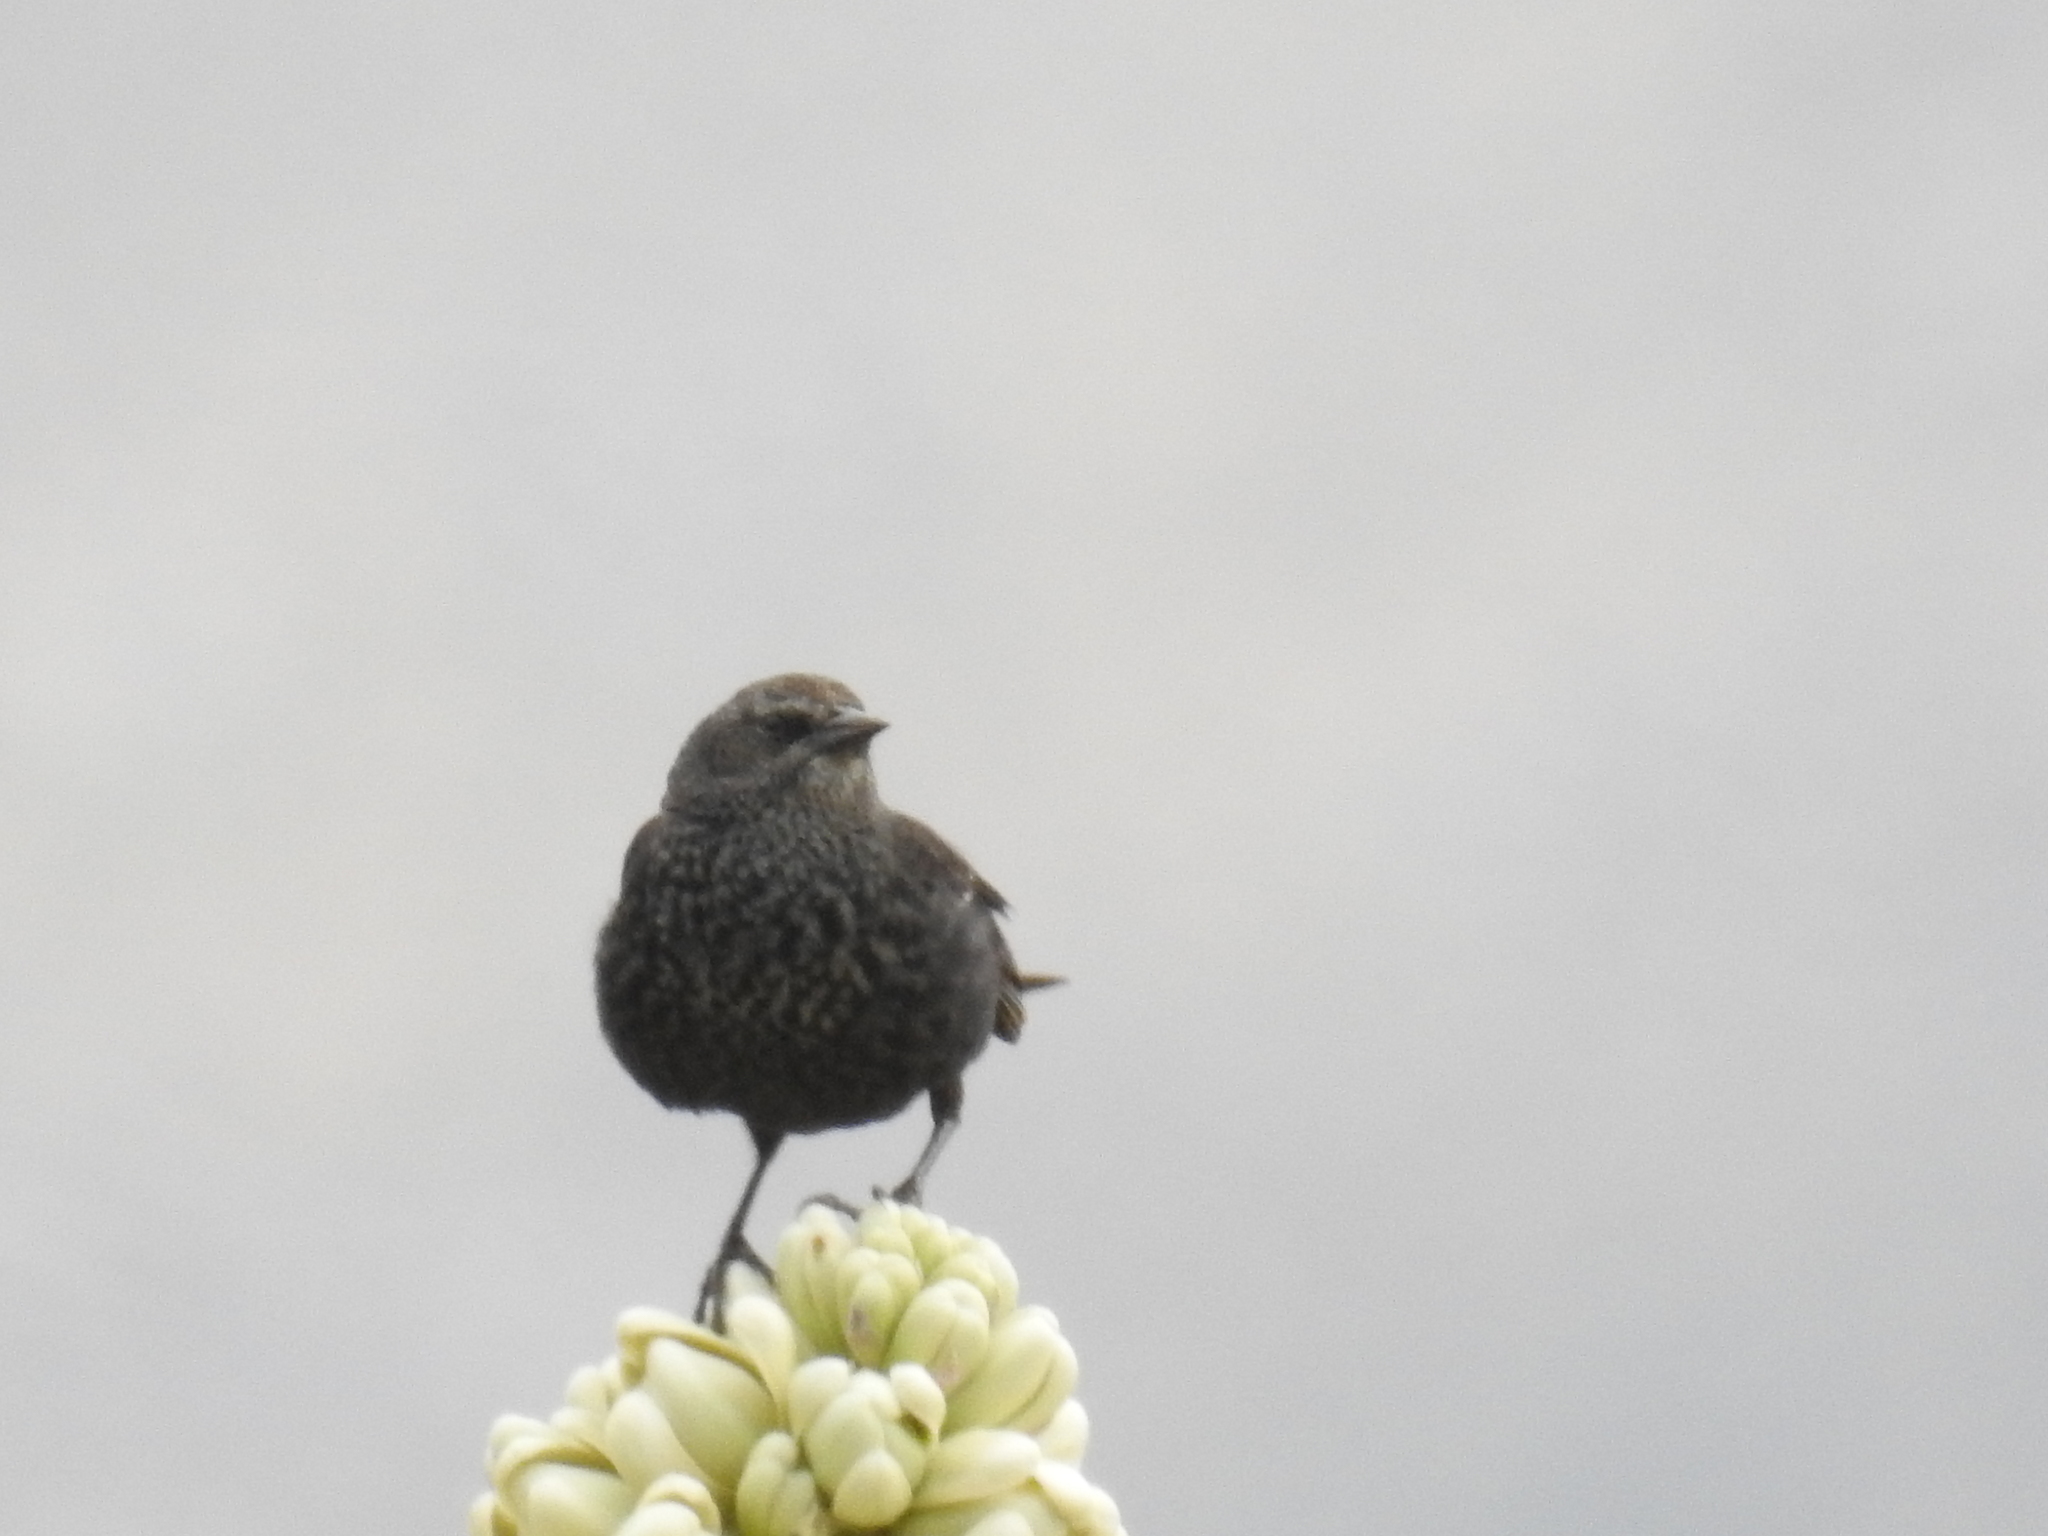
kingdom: Animalia
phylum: Chordata
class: Aves
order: Passeriformes
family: Icteridae
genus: Agelaius
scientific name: Agelaius tricolor
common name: Tricolored blackbird
